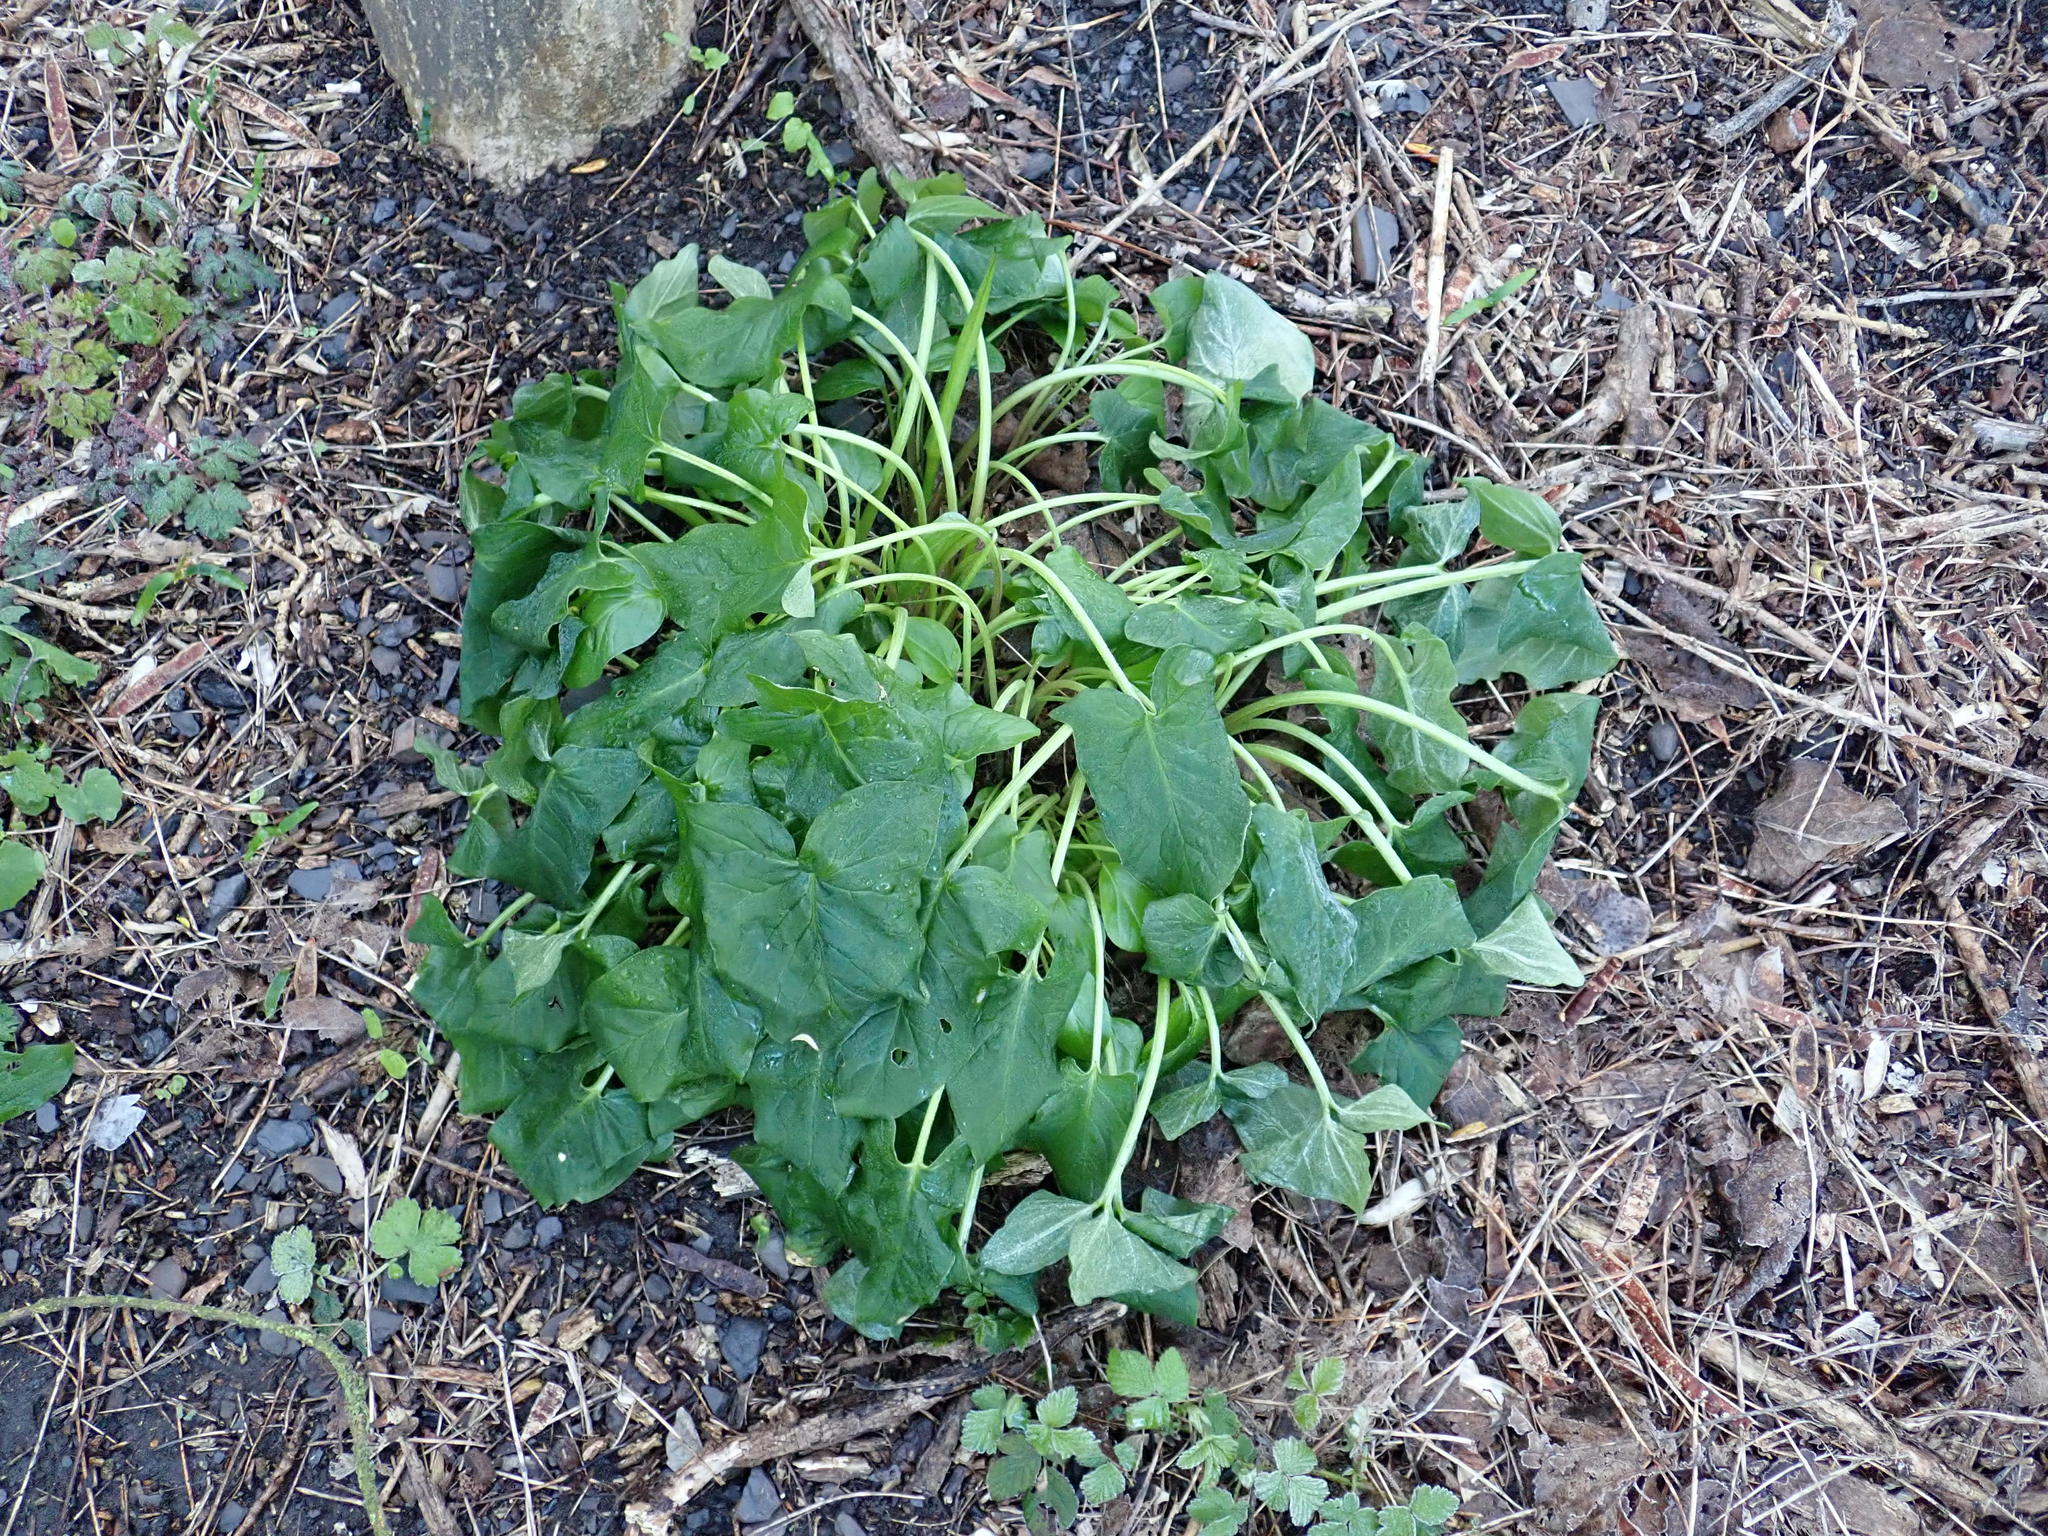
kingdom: Plantae
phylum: Tracheophyta
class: Liliopsida
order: Alismatales
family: Araceae
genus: Arum
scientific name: Arum maculatum
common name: Lords-and-ladies
